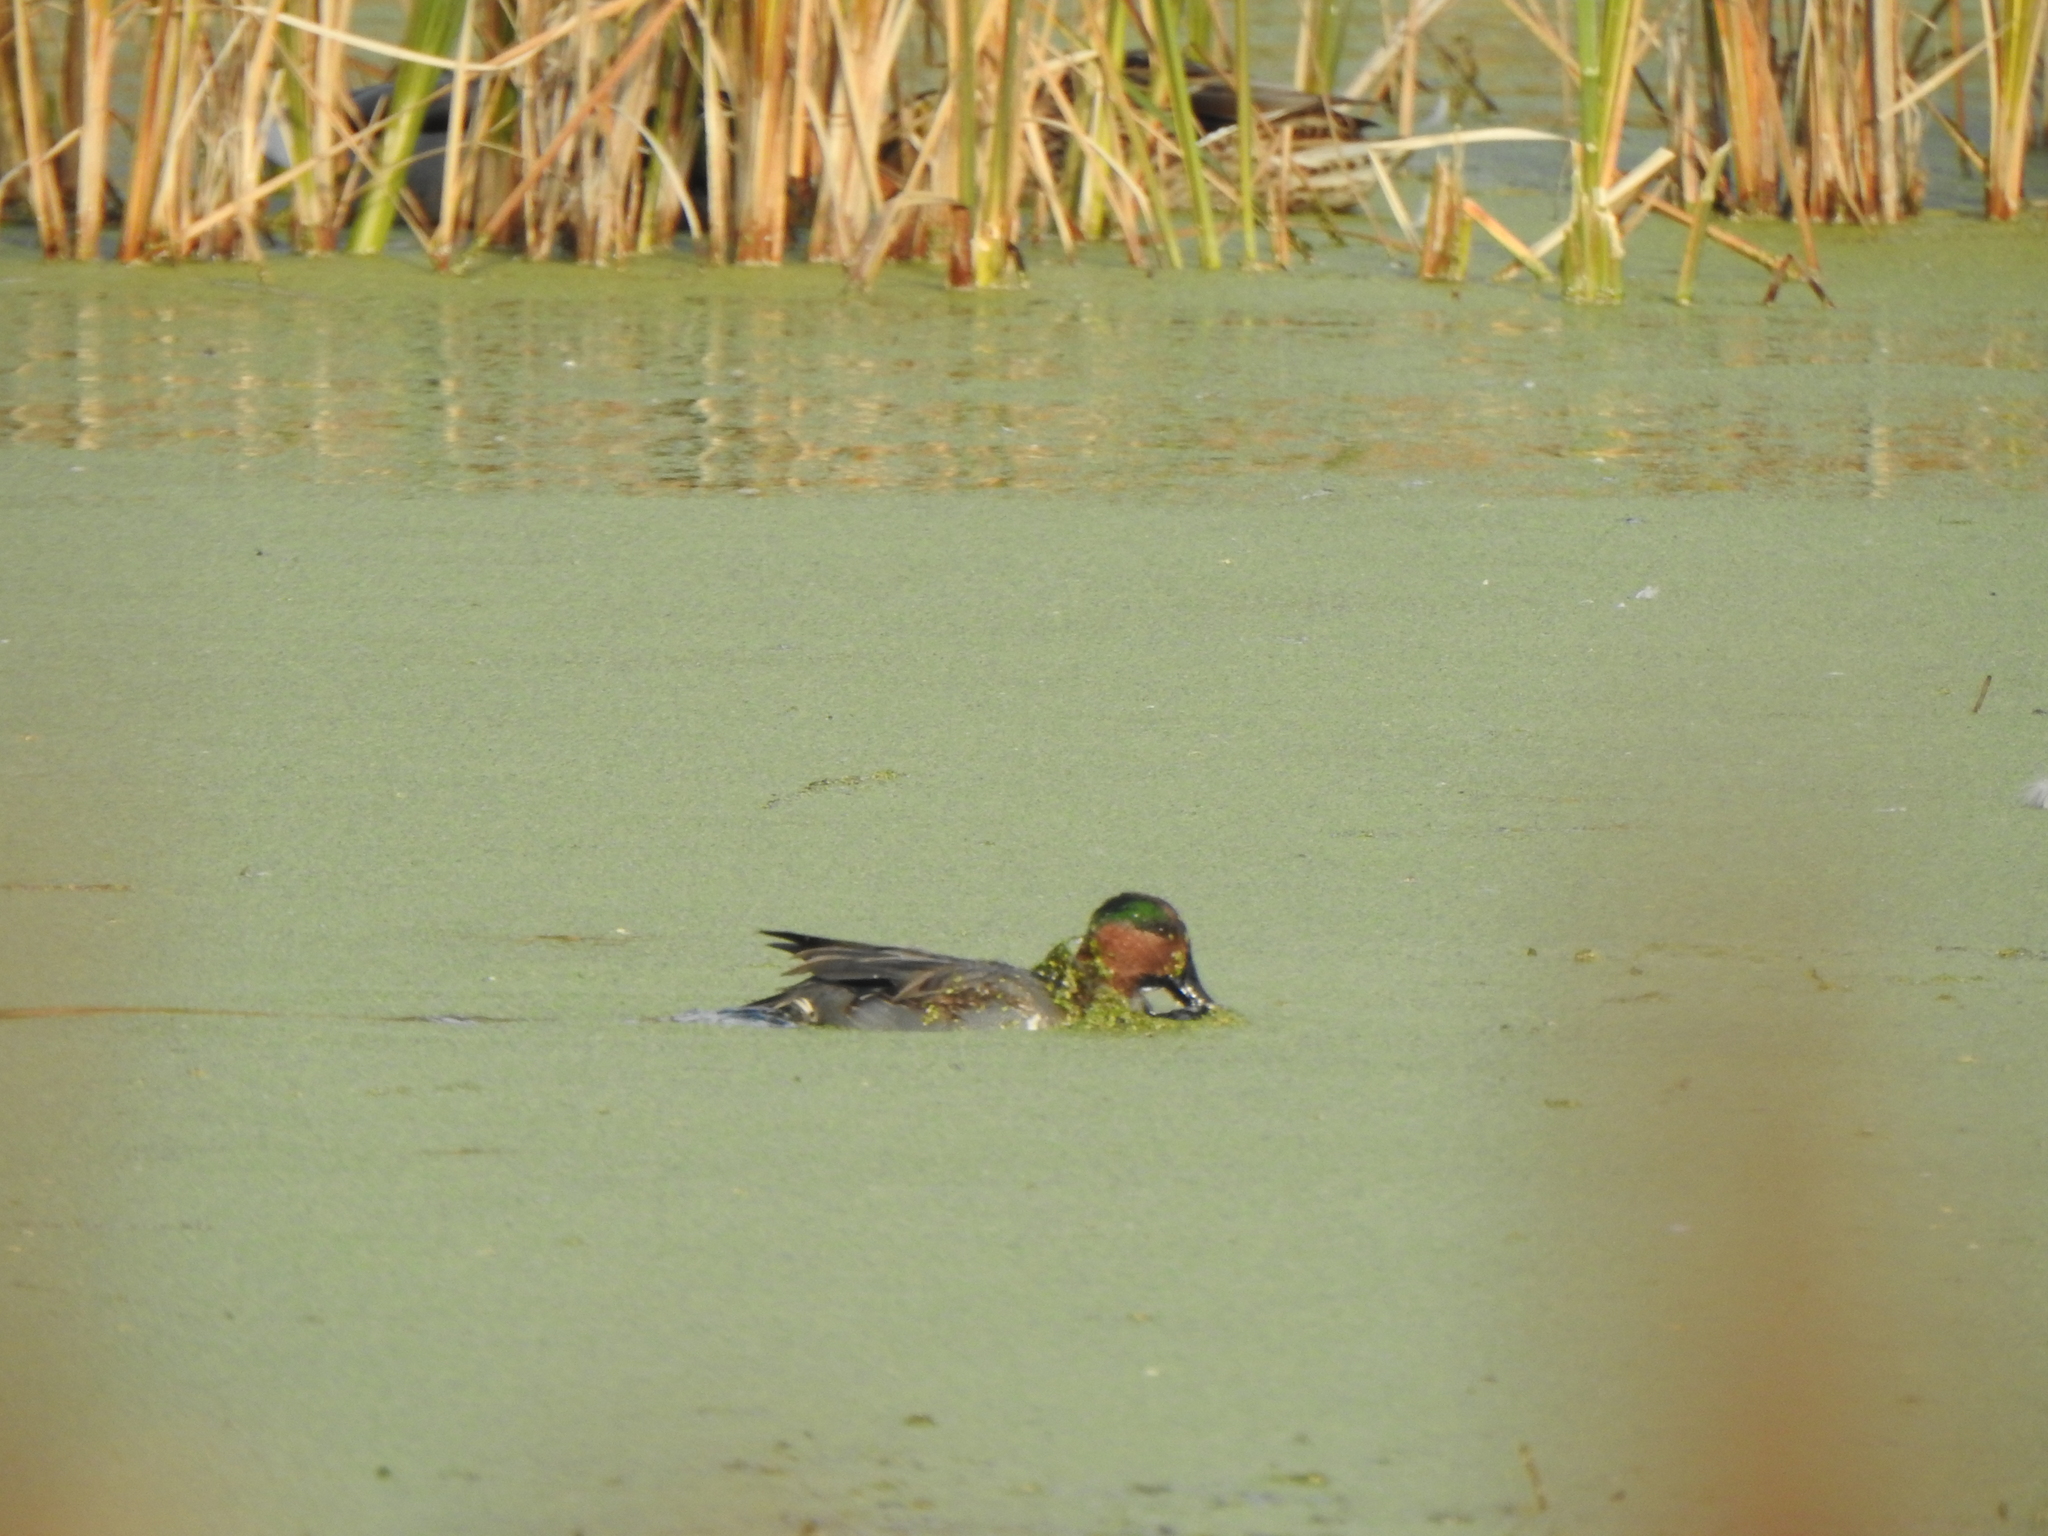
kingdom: Animalia
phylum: Chordata
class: Aves
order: Anseriformes
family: Anatidae
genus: Anas
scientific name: Anas carolinensis
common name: Green-winged teal
